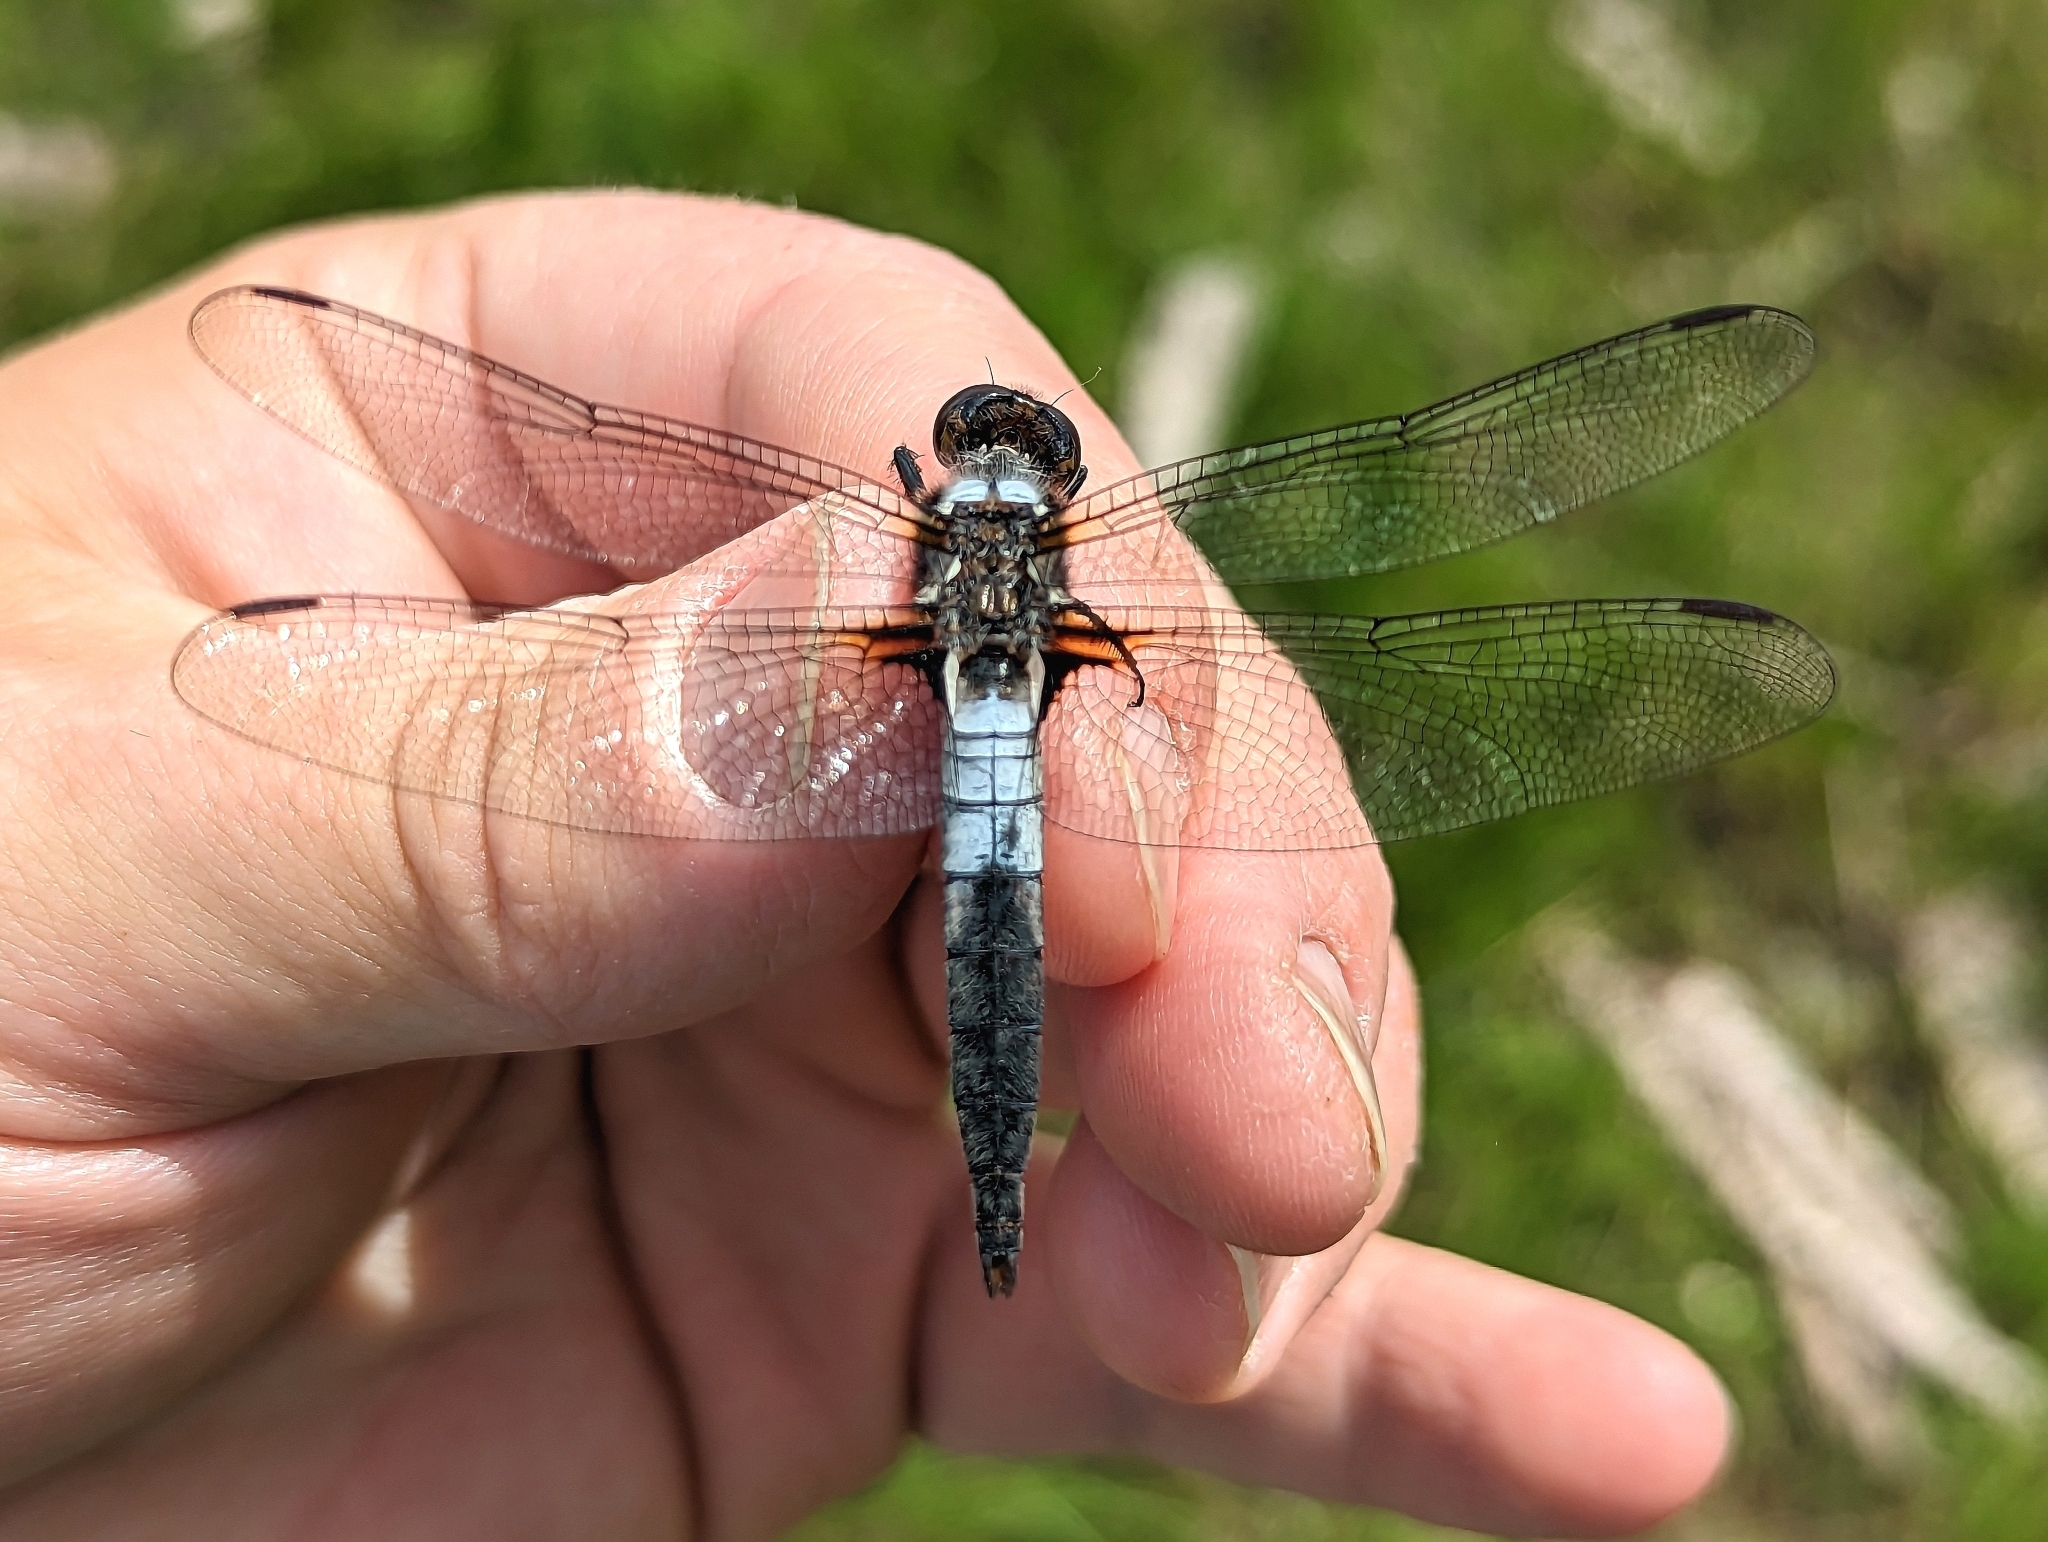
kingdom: Animalia
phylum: Arthropoda
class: Insecta
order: Odonata
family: Libellulidae
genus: Ladona
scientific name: Ladona julia
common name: Chalk-fronted corporal
